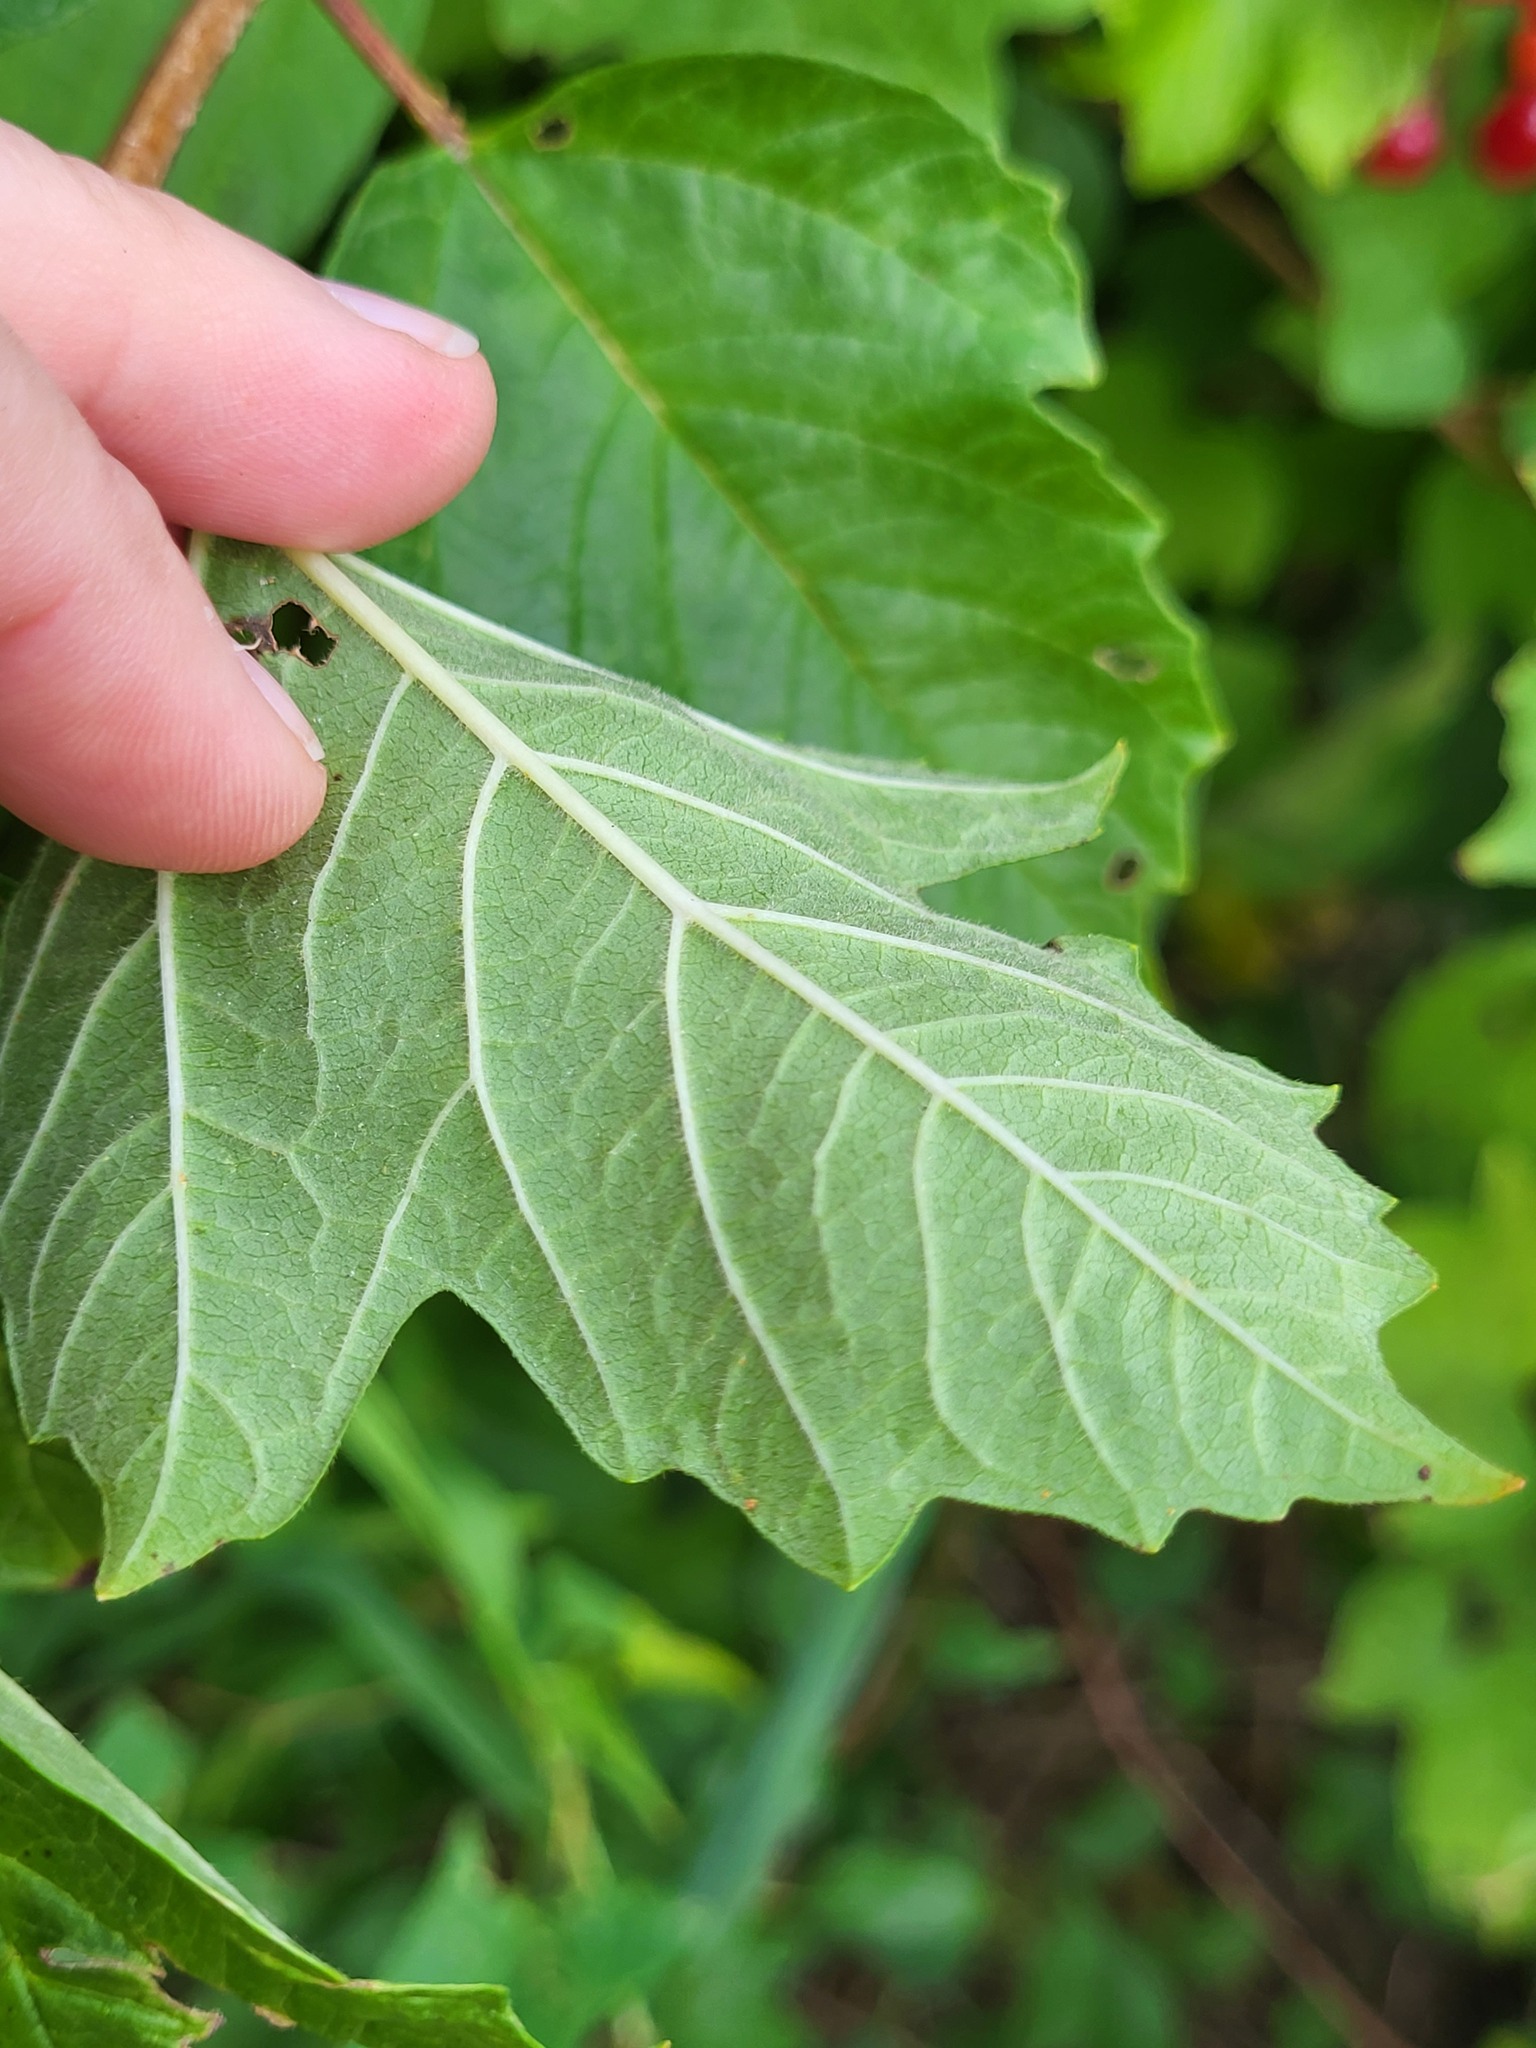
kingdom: Plantae
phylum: Tracheophyta
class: Magnoliopsida
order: Dipsacales
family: Viburnaceae
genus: Viburnum
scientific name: Viburnum opulus
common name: Guelder-rose
